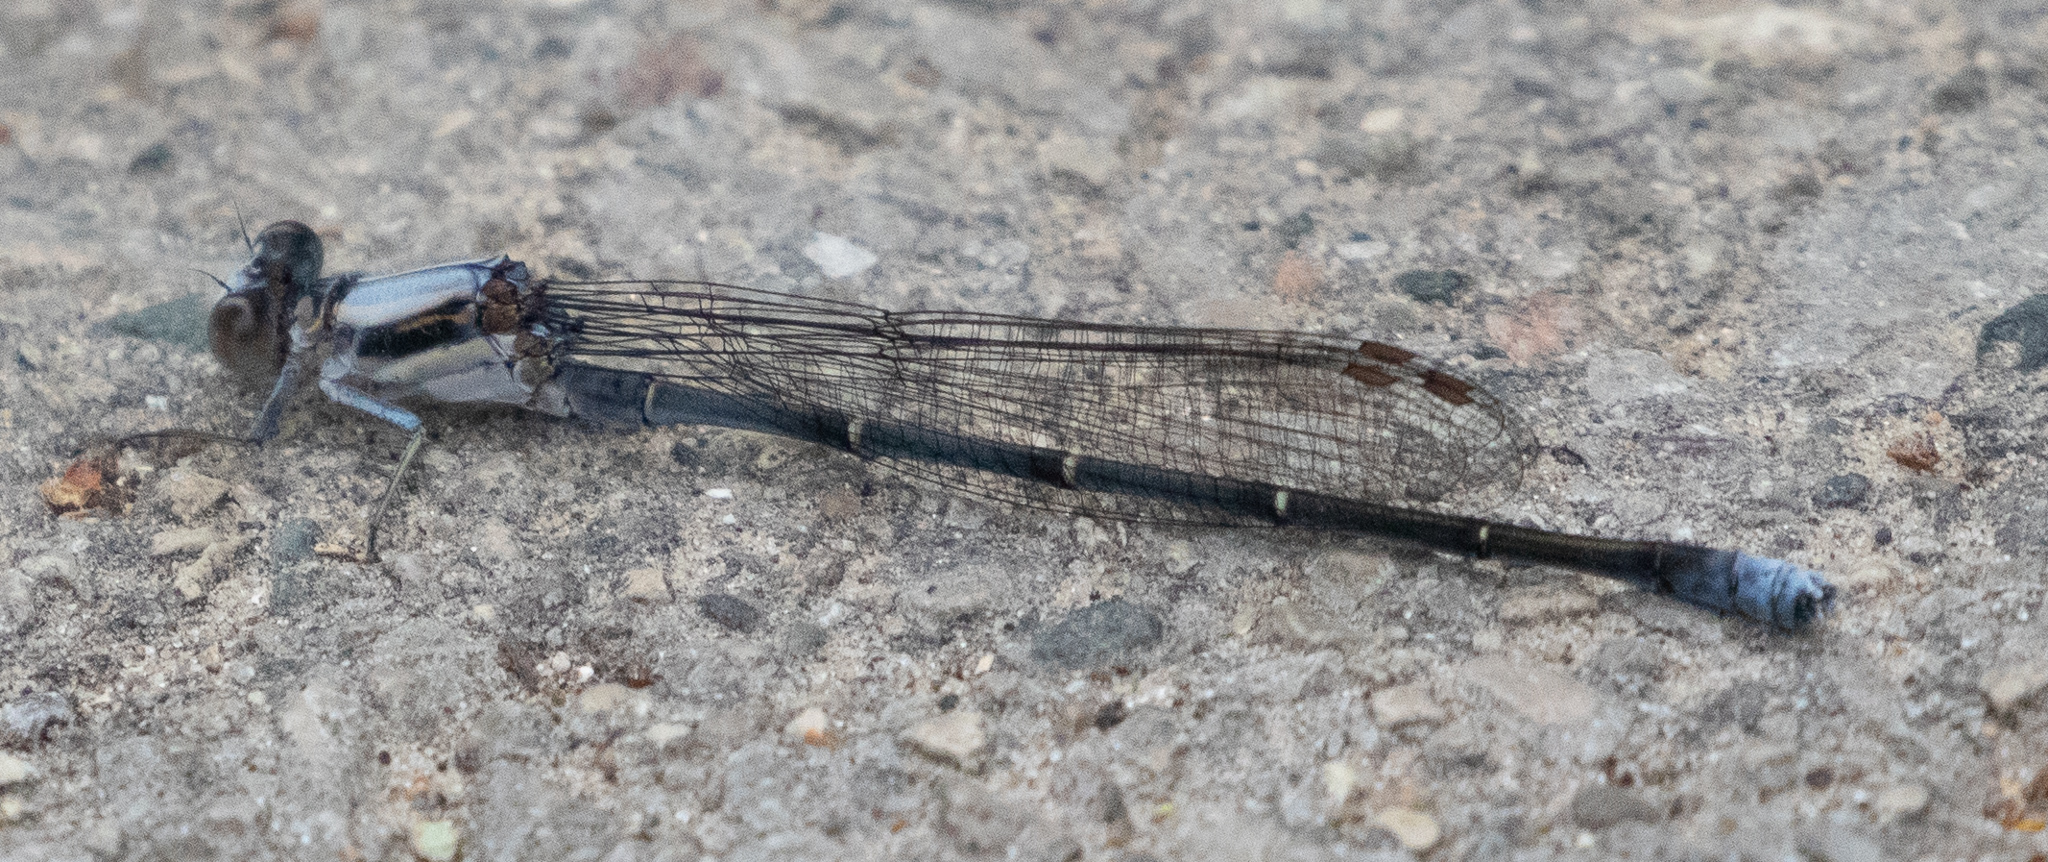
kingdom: Animalia
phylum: Arthropoda
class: Insecta
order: Odonata
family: Coenagrionidae
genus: Argia
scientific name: Argia moesta
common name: Powdered dancer
